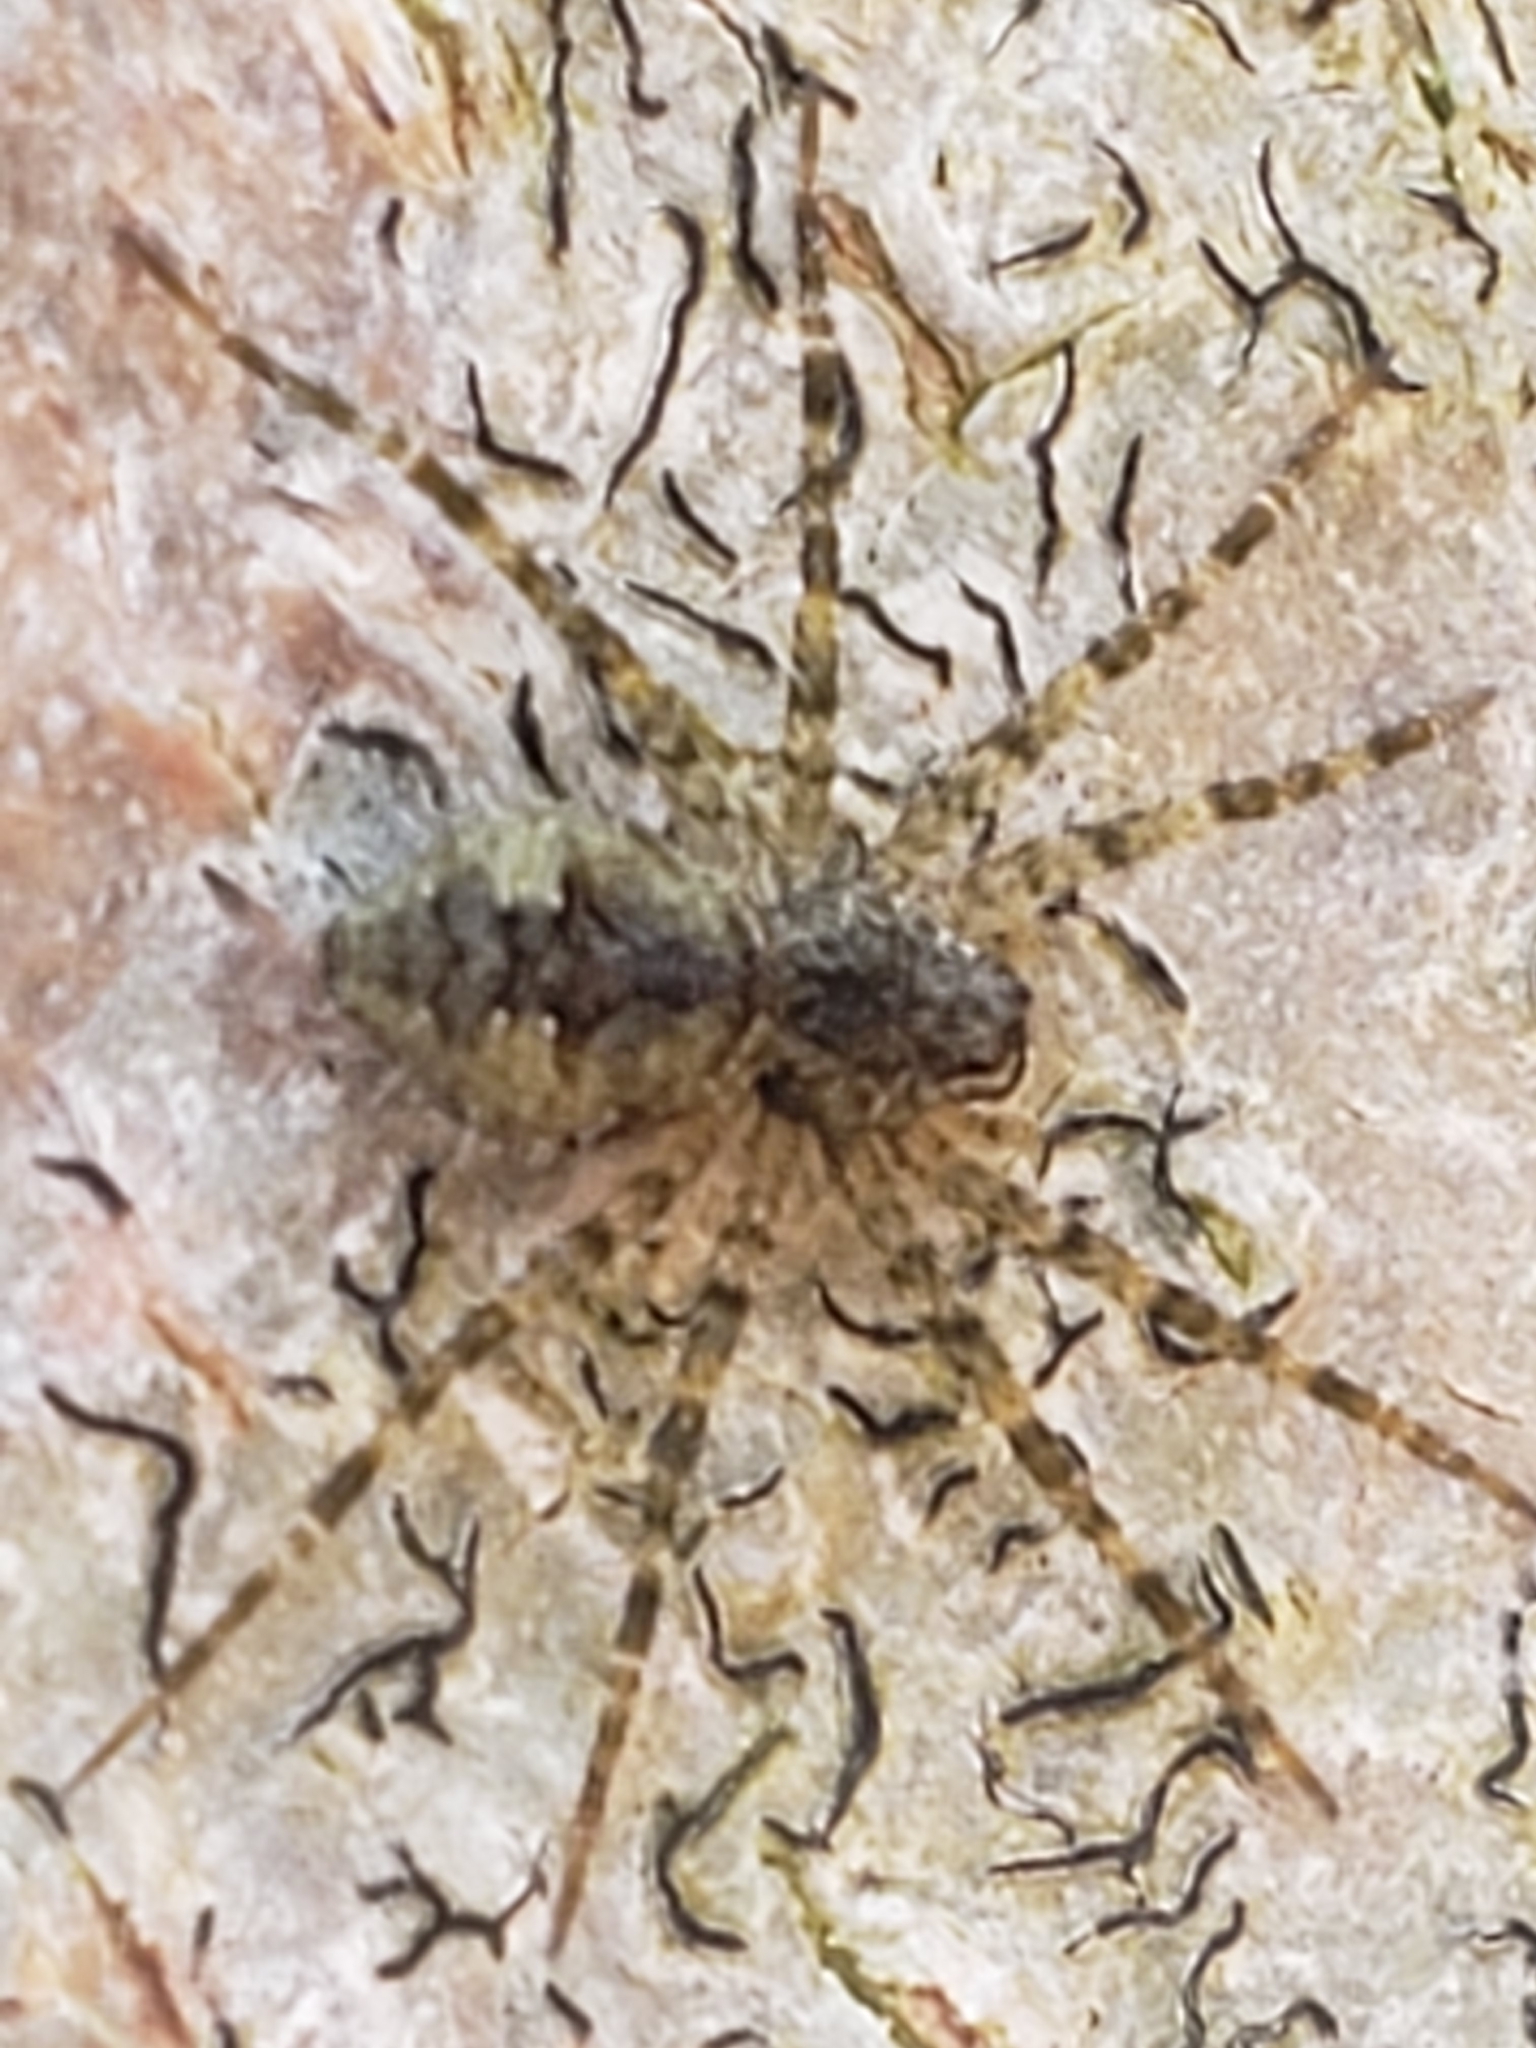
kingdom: Animalia
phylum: Arthropoda
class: Arachnida
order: Araneae
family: Pisauridae
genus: Dolomedes
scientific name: Dolomedes albineus
